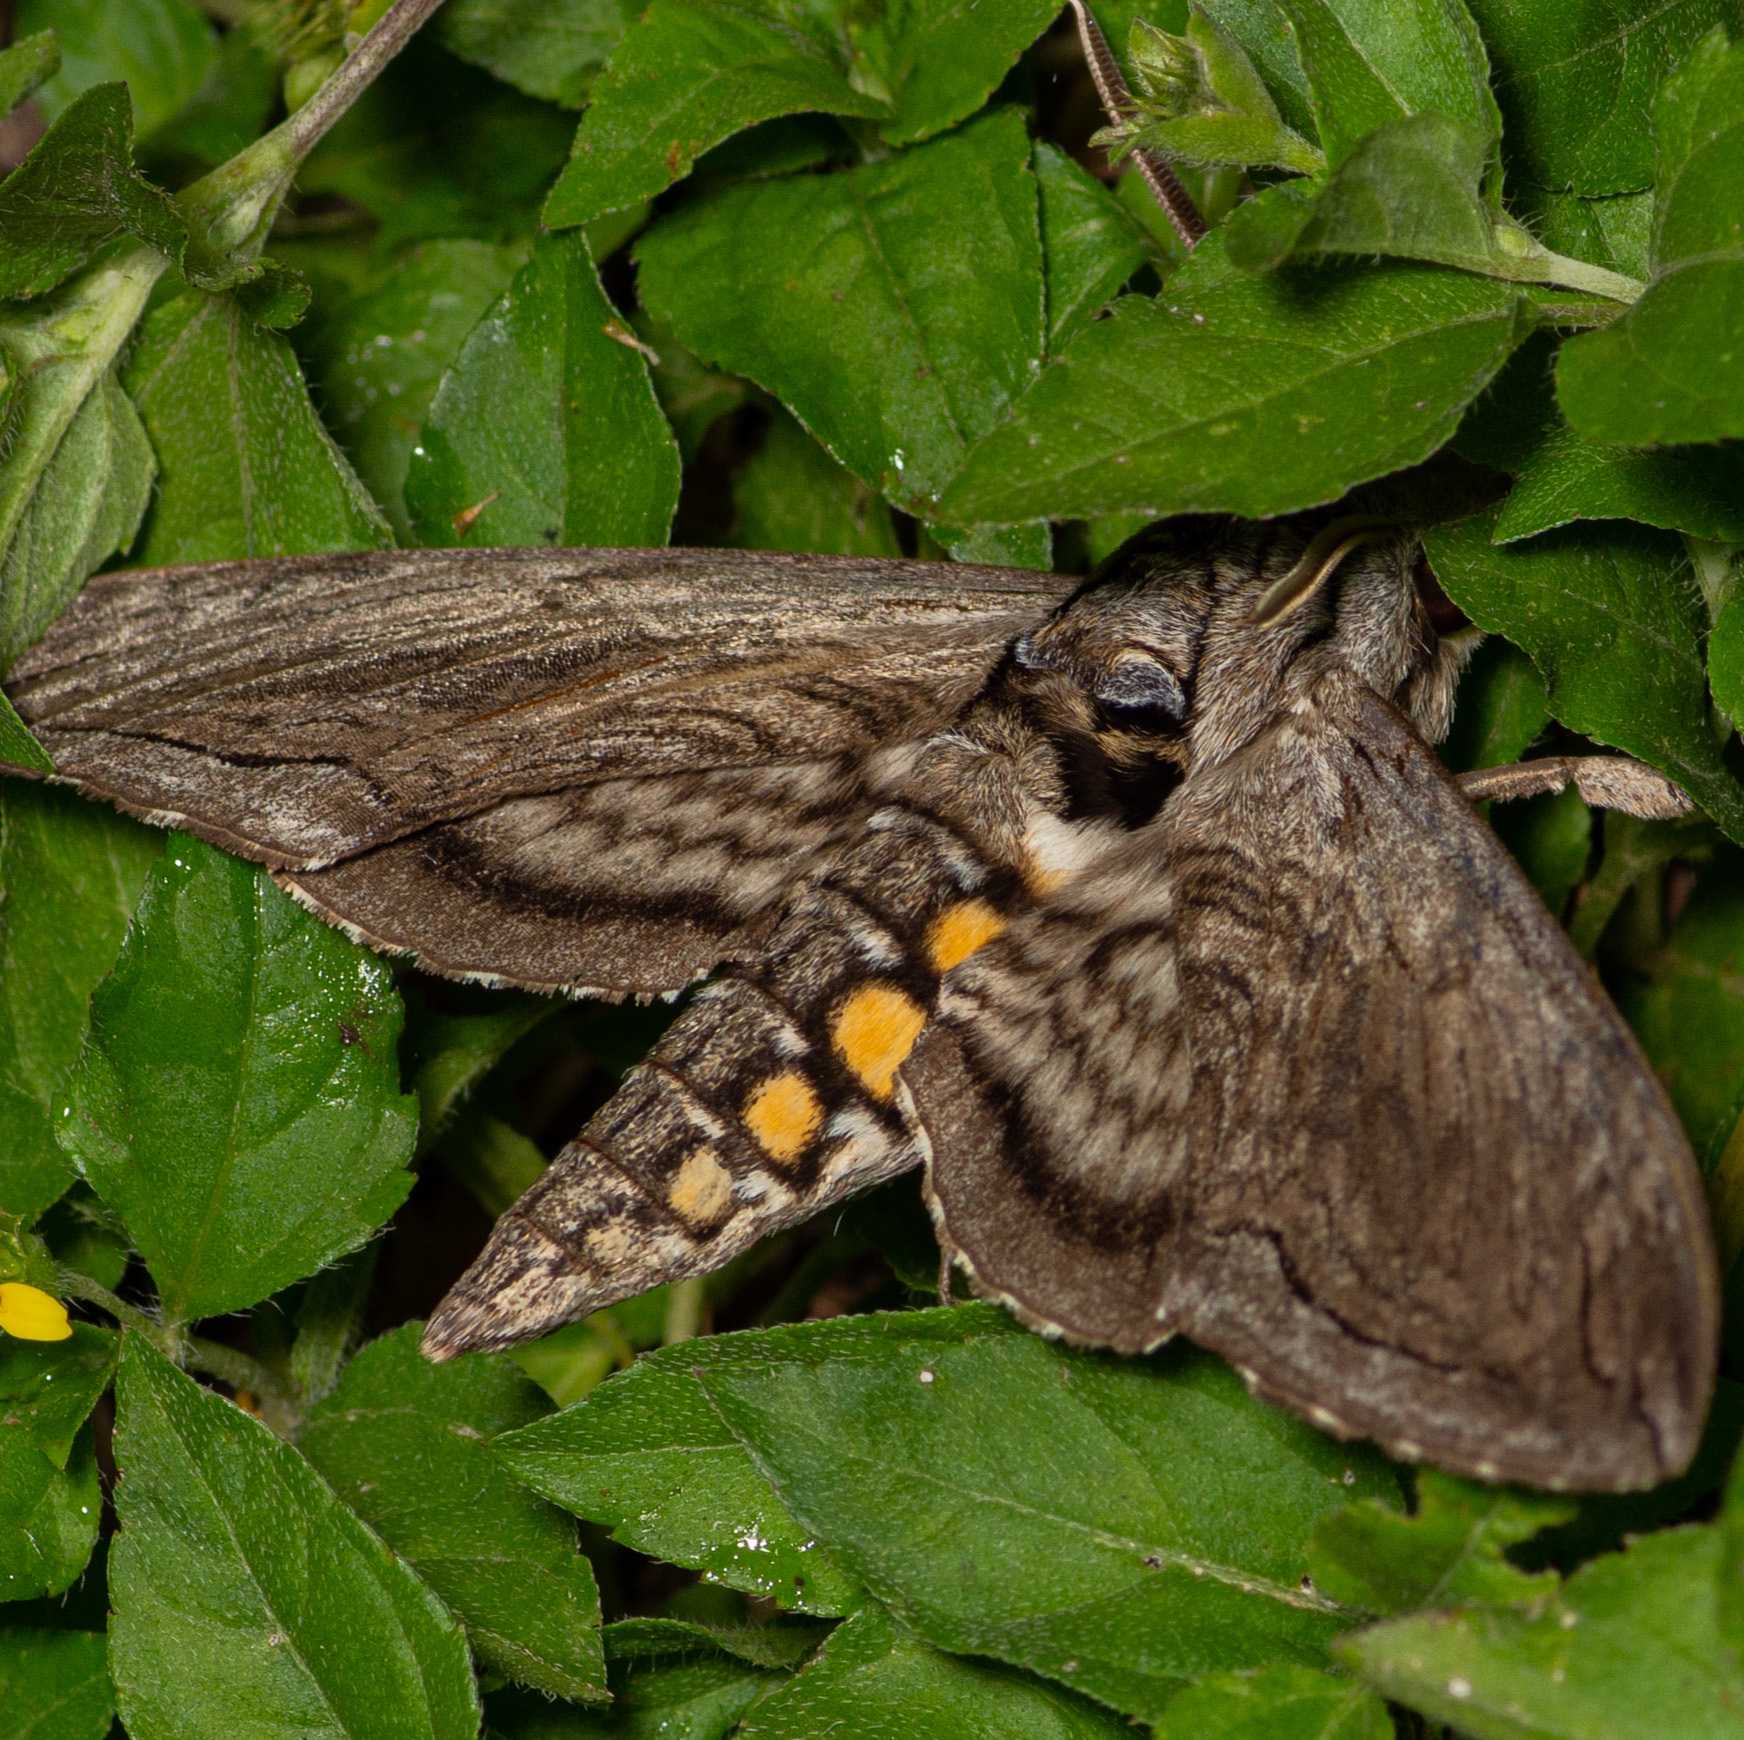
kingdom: Animalia
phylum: Arthropoda
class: Insecta
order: Lepidoptera
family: Sphingidae
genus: Manduca
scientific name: Manduca quinquemaculatus
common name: Five-spotted hawk-moth
